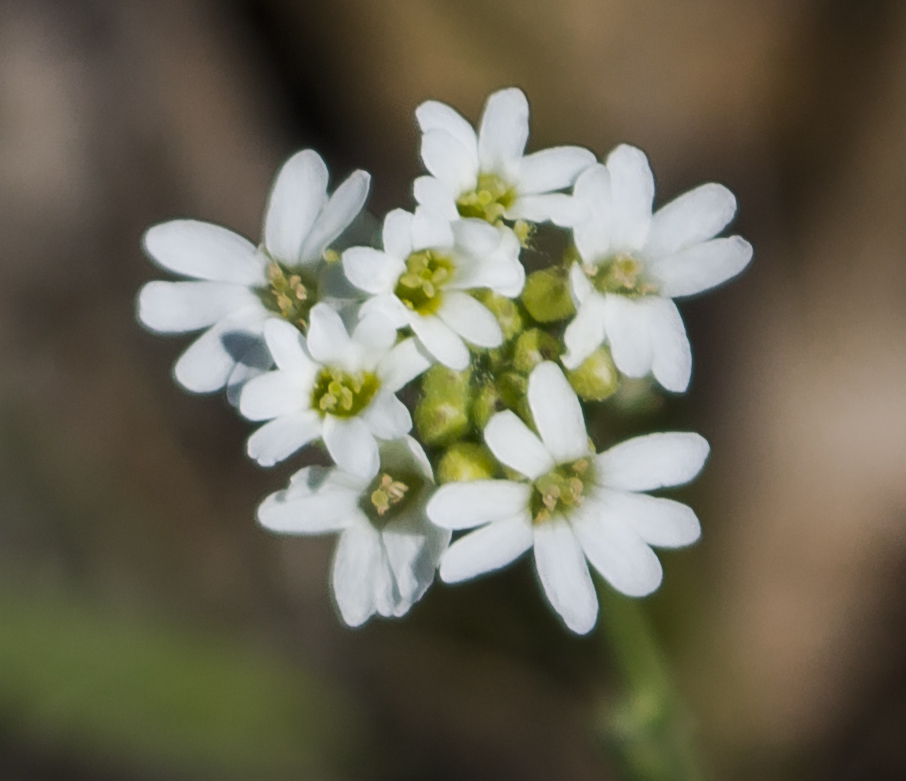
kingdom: Plantae
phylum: Tracheophyta
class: Magnoliopsida
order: Brassicales
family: Brassicaceae
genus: Berteroa
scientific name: Berteroa incana
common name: Hoary alison
